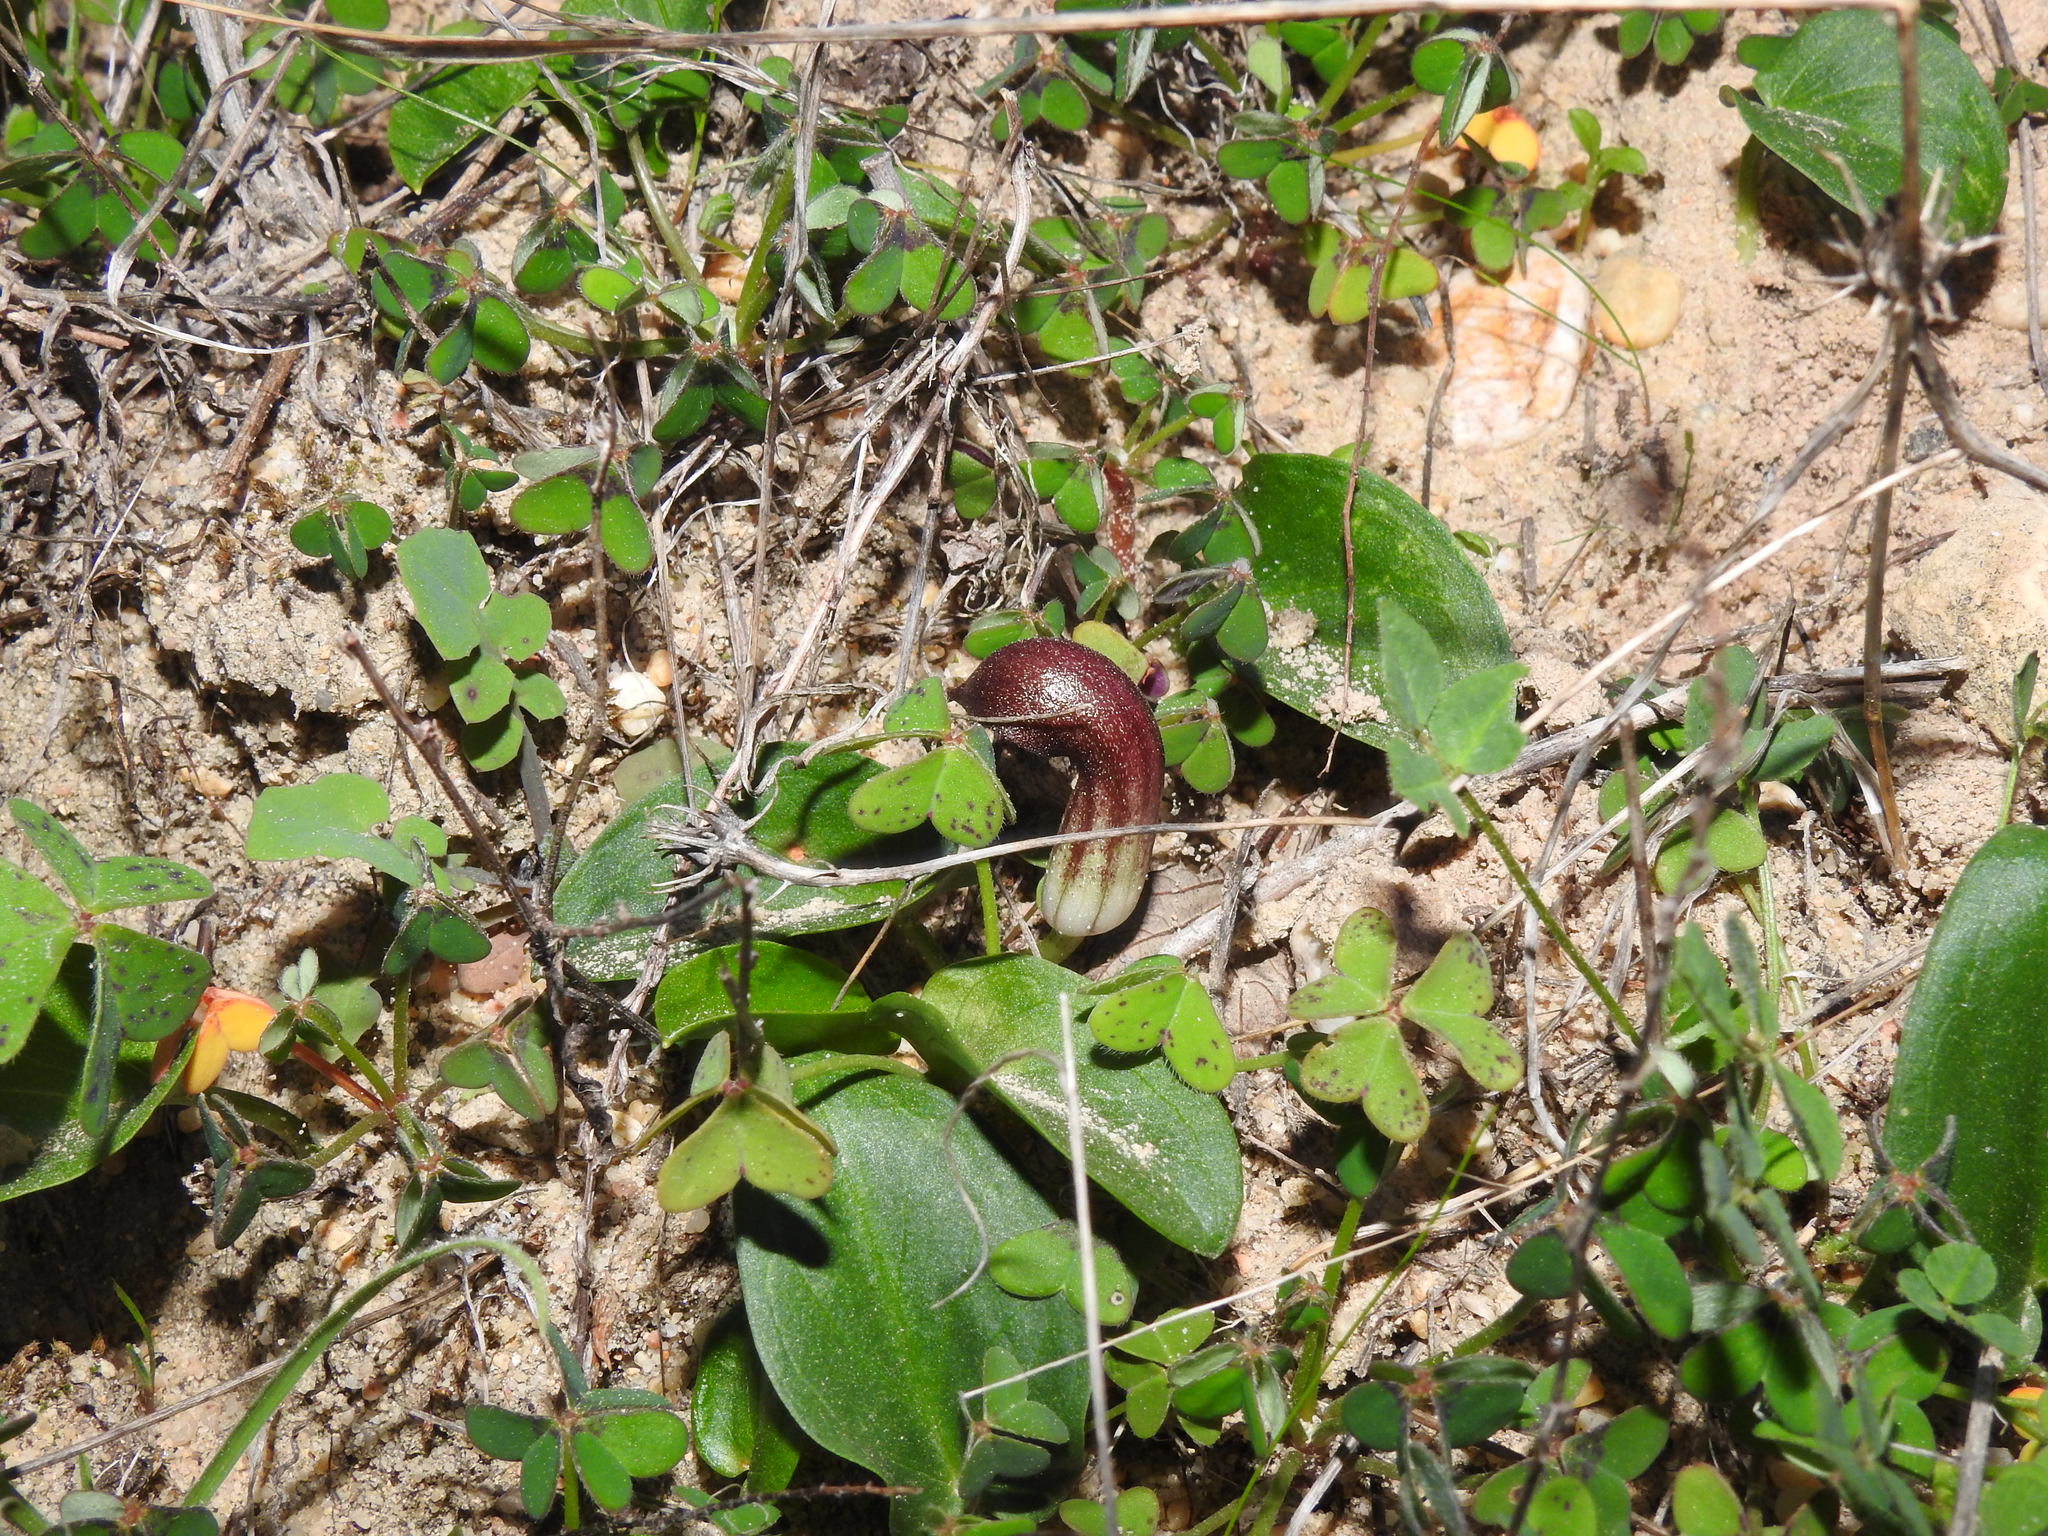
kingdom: Plantae
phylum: Tracheophyta
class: Liliopsida
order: Alismatales
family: Araceae
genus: Arisarum
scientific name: Arisarum simorrhinum
